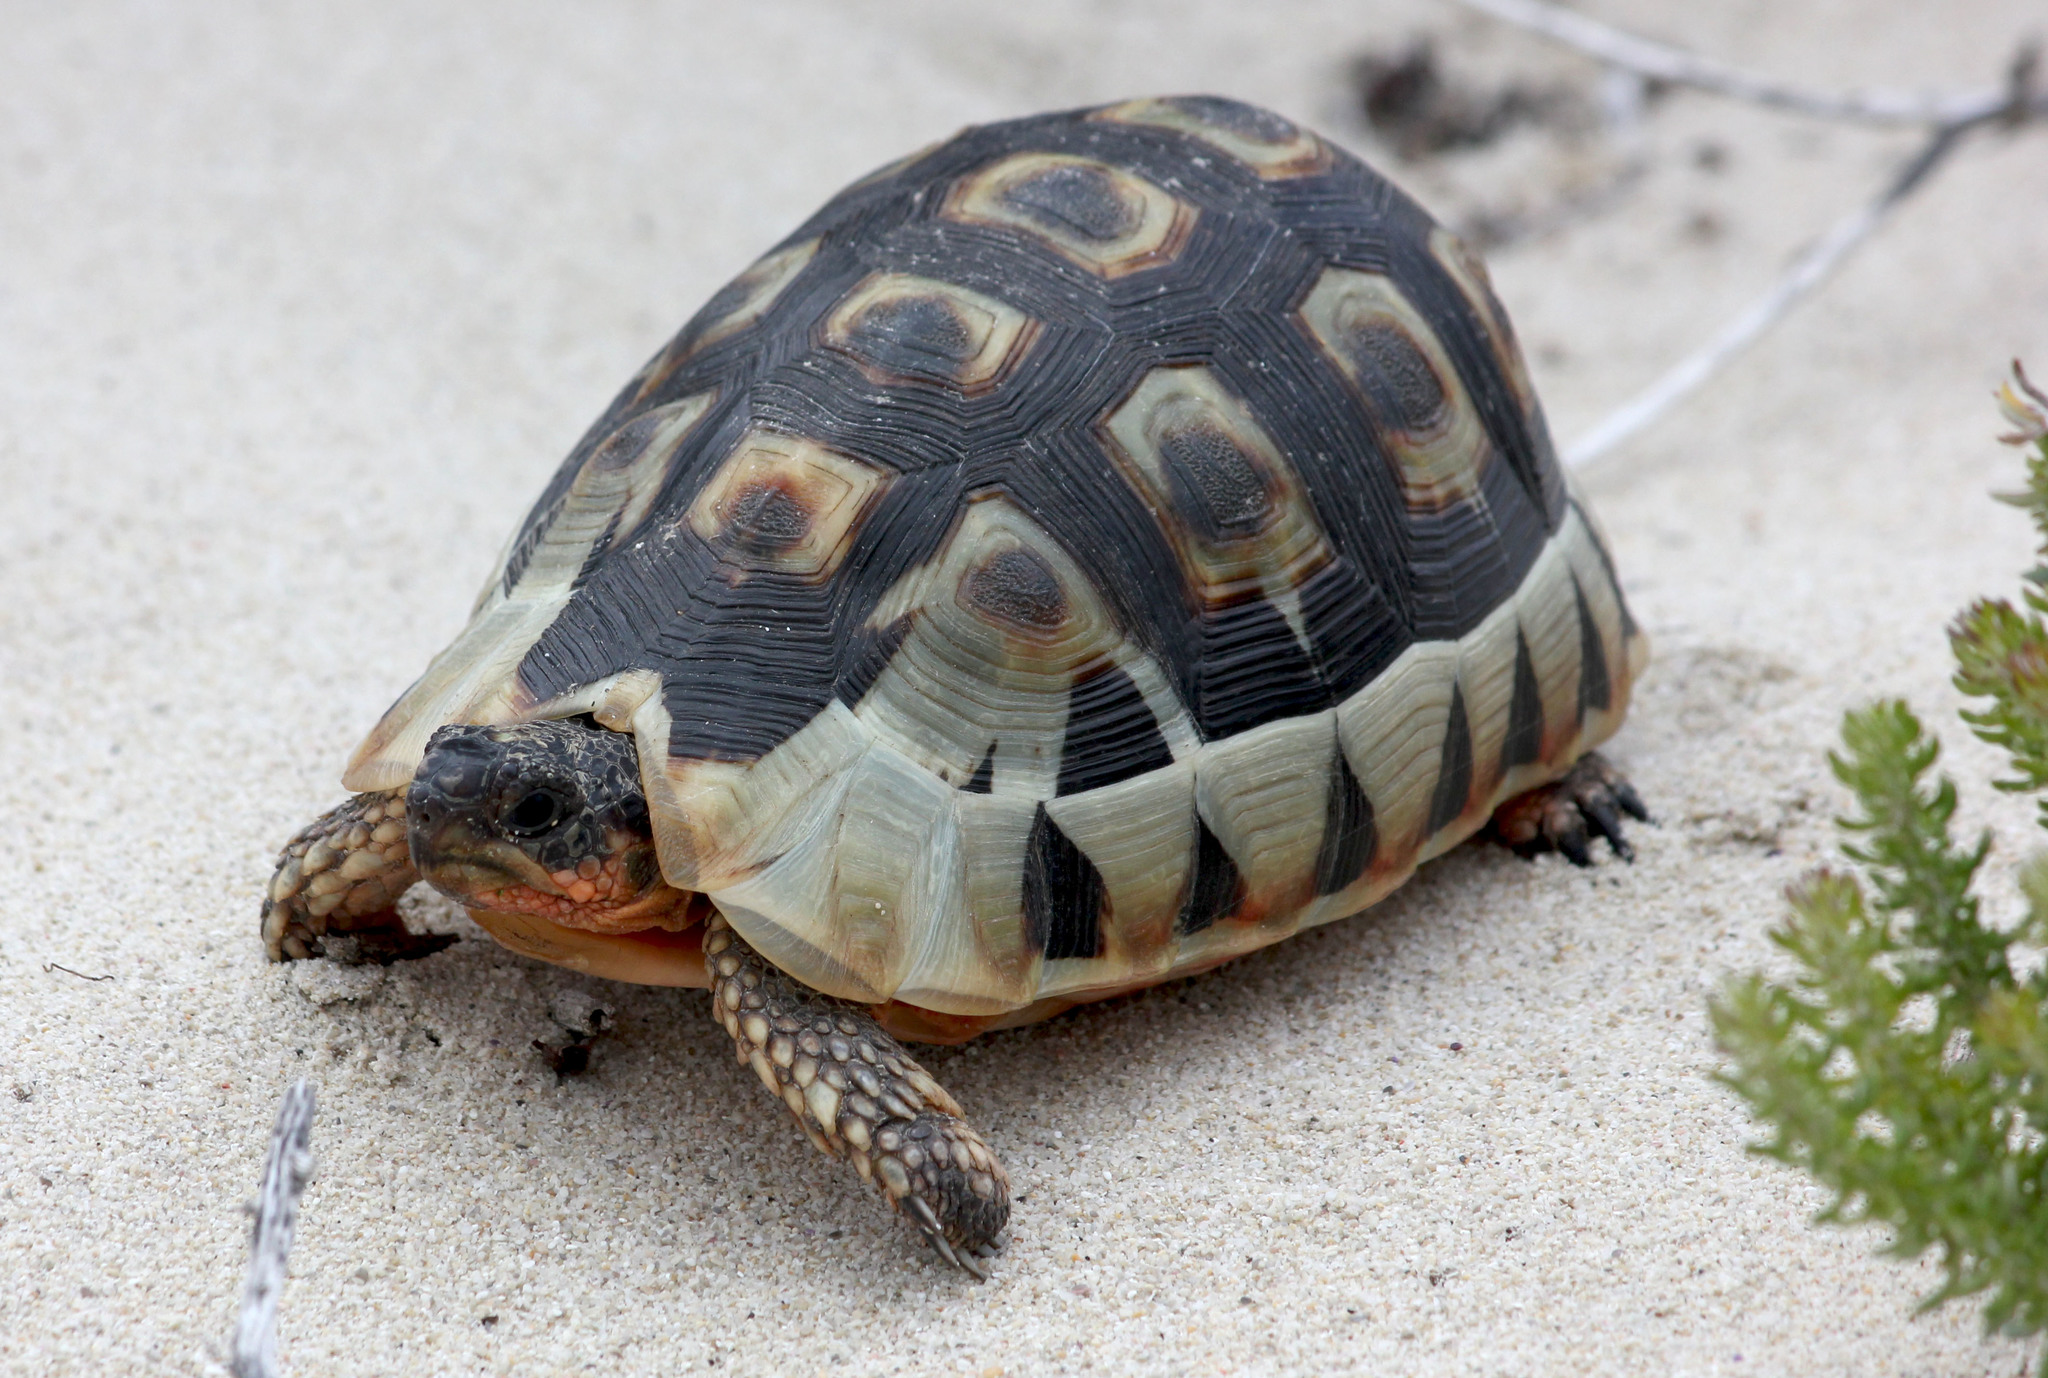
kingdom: Animalia
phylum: Chordata
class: Testudines
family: Testudinidae
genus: Chersina
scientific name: Chersina angulata
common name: South african bowsprit tortoise
